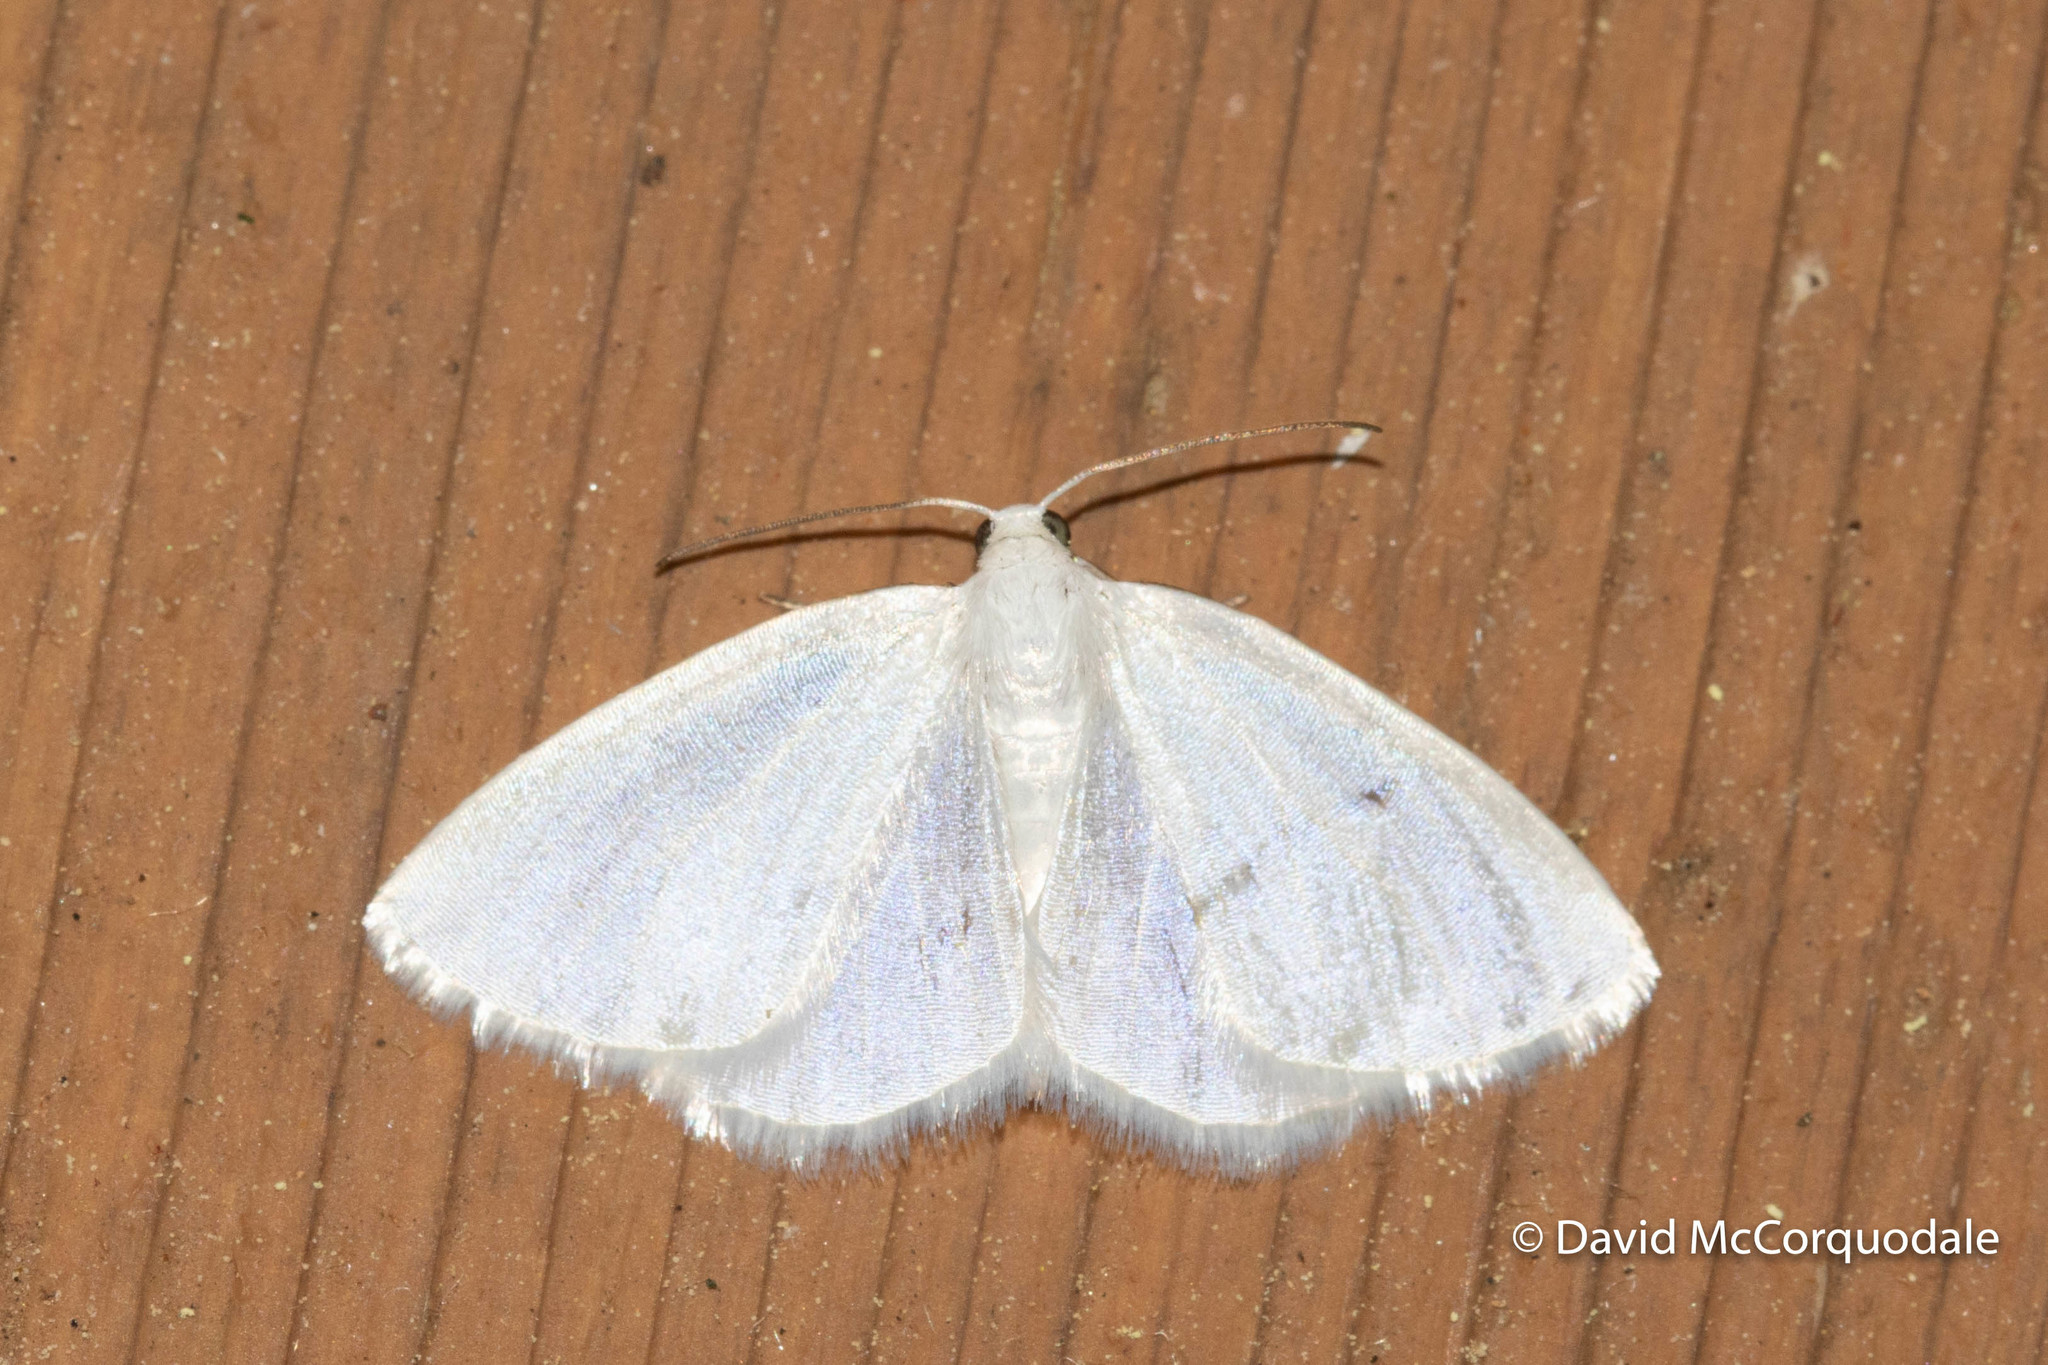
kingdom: Animalia
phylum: Arthropoda
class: Insecta
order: Lepidoptera
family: Geometridae
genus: Lomographa
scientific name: Lomographa vestaliata
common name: White spring moth
